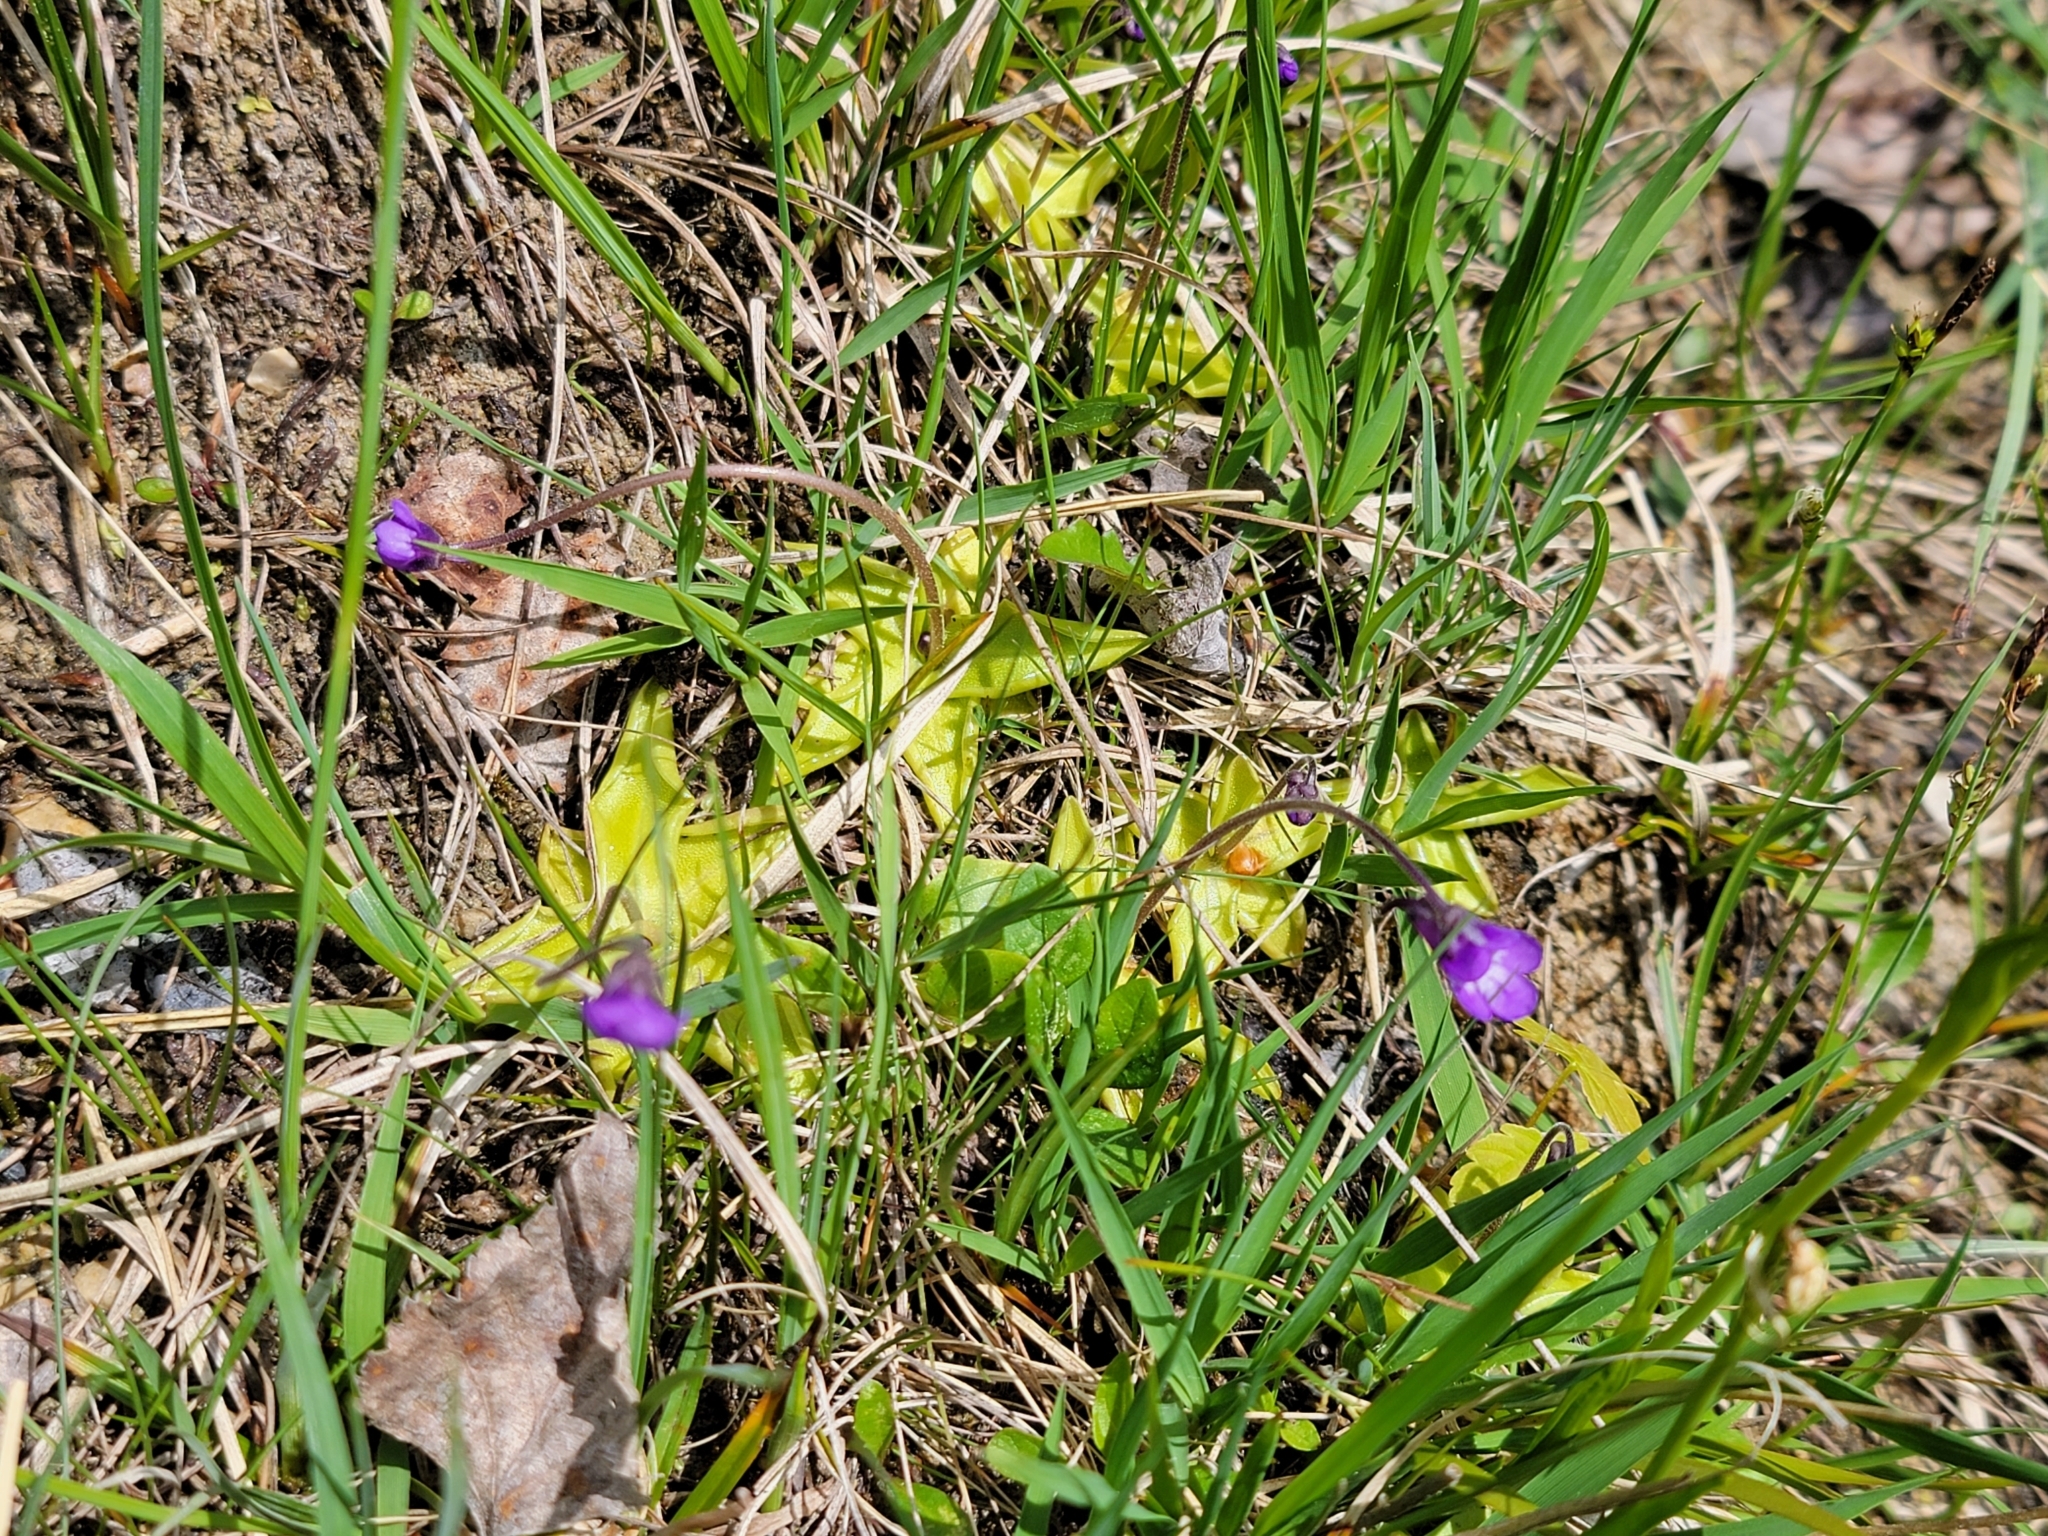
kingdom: Plantae
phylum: Tracheophyta
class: Magnoliopsida
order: Lamiales
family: Lentibulariaceae
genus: Pinguicula
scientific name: Pinguicula vulgaris
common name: Common butterwort
